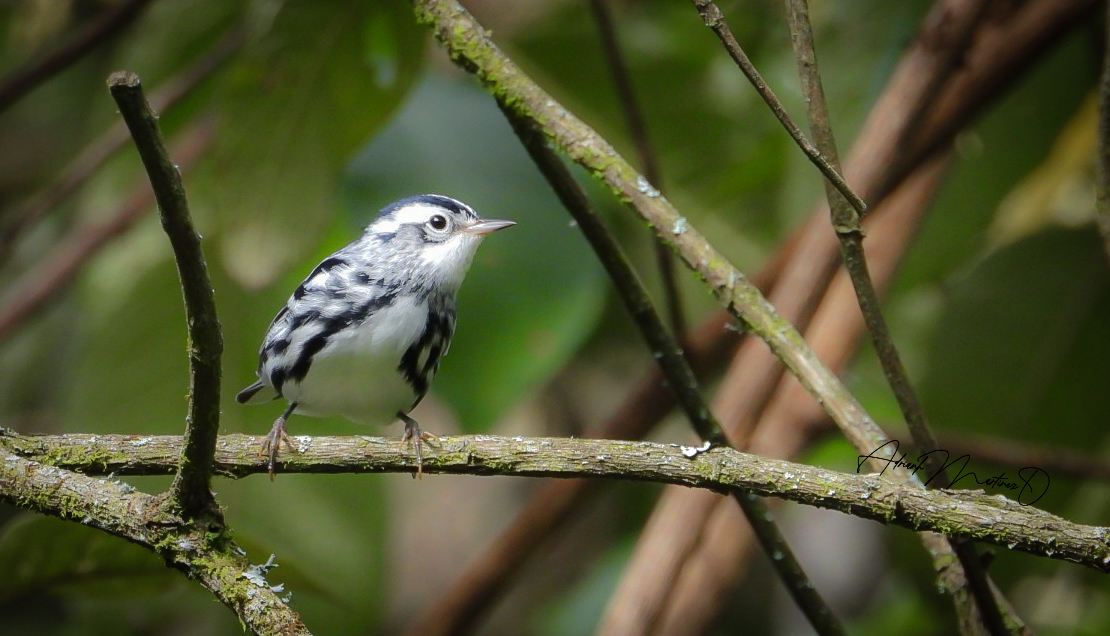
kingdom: Animalia
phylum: Chordata
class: Aves
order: Passeriformes
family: Parulidae
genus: Mniotilta
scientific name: Mniotilta varia
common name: Black-and-white warbler
